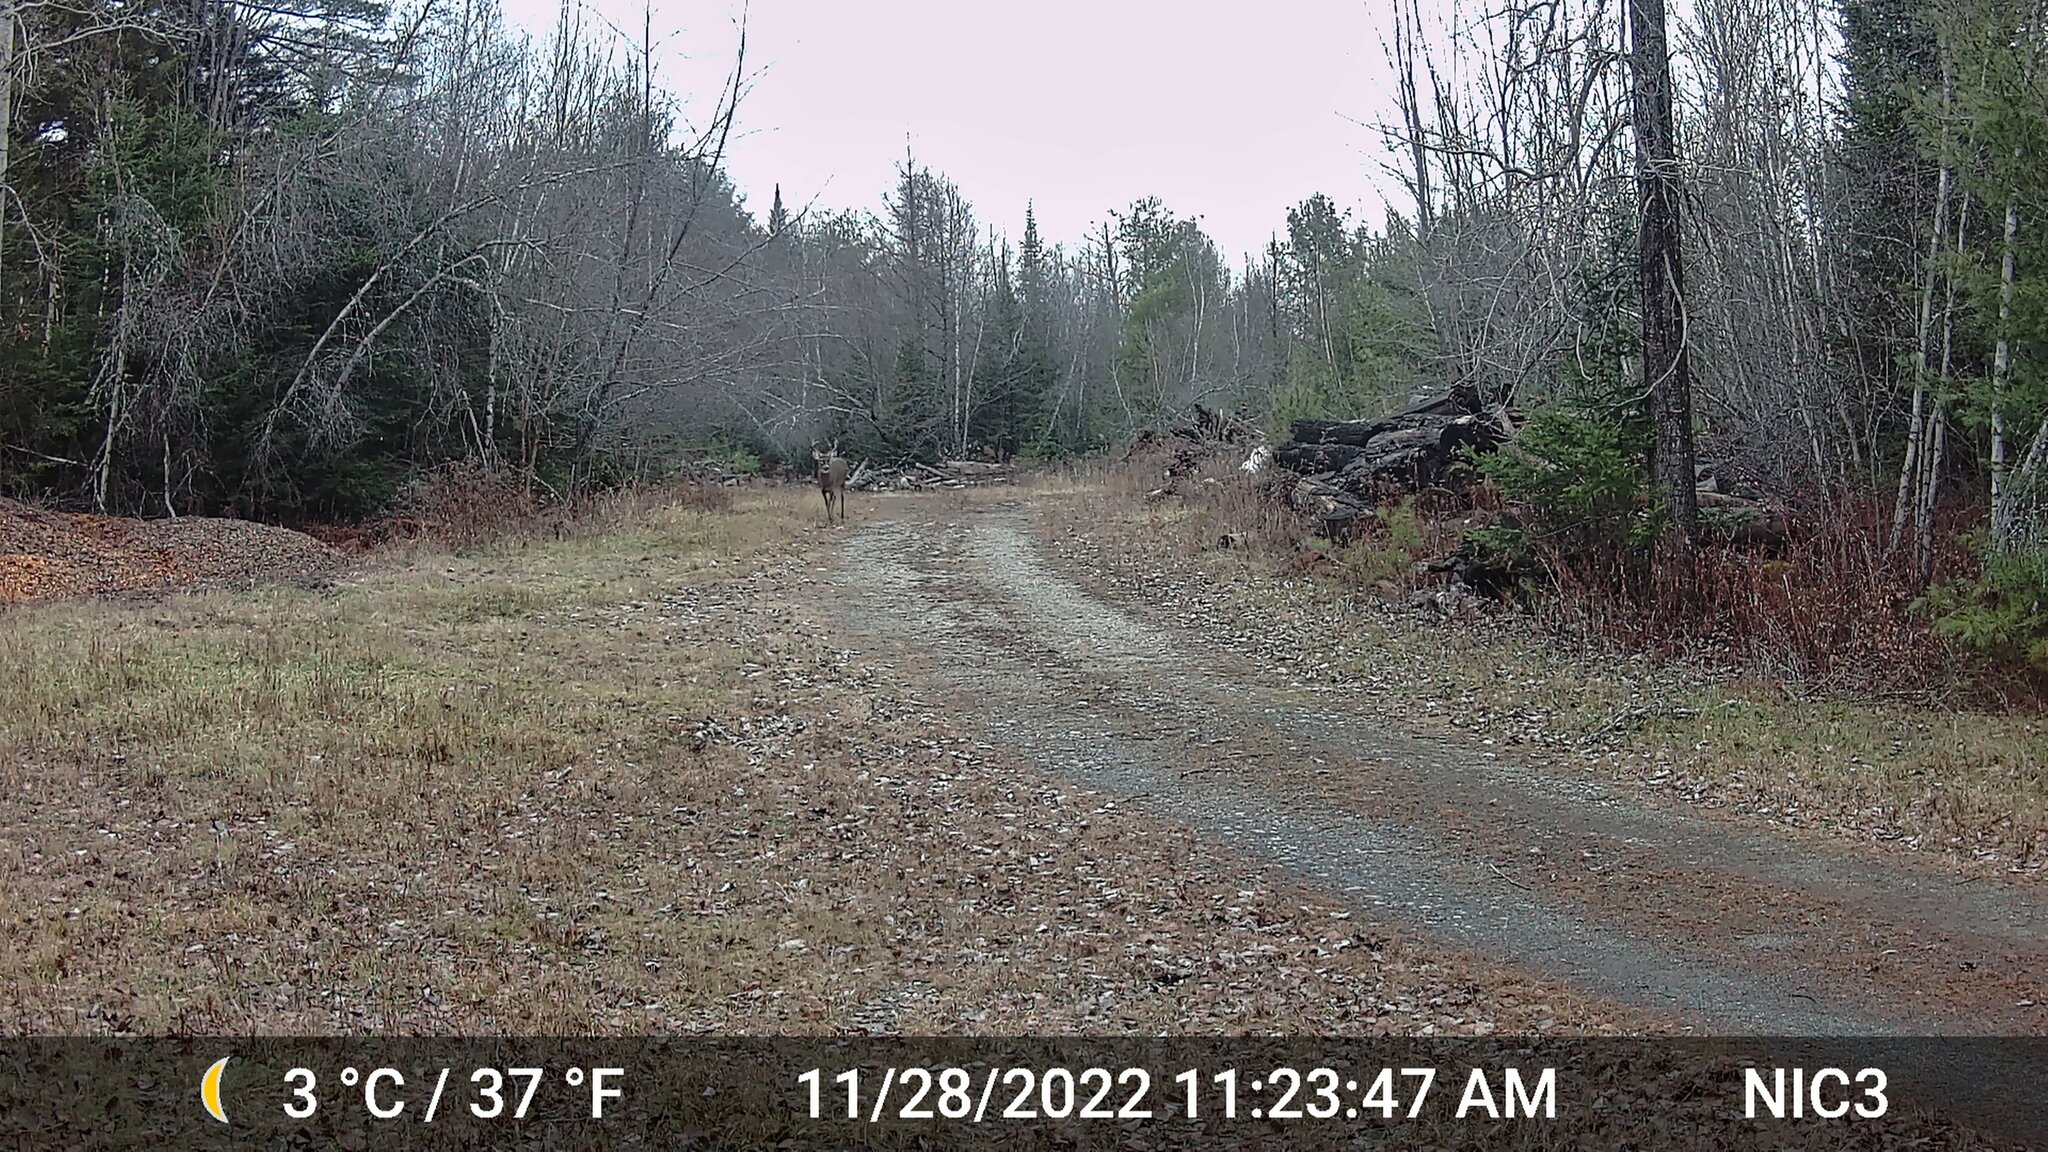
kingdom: Animalia
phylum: Chordata
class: Mammalia
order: Artiodactyla
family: Cervidae
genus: Odocoileus
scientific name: Odocoileus virginianus
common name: White-tailed deer
